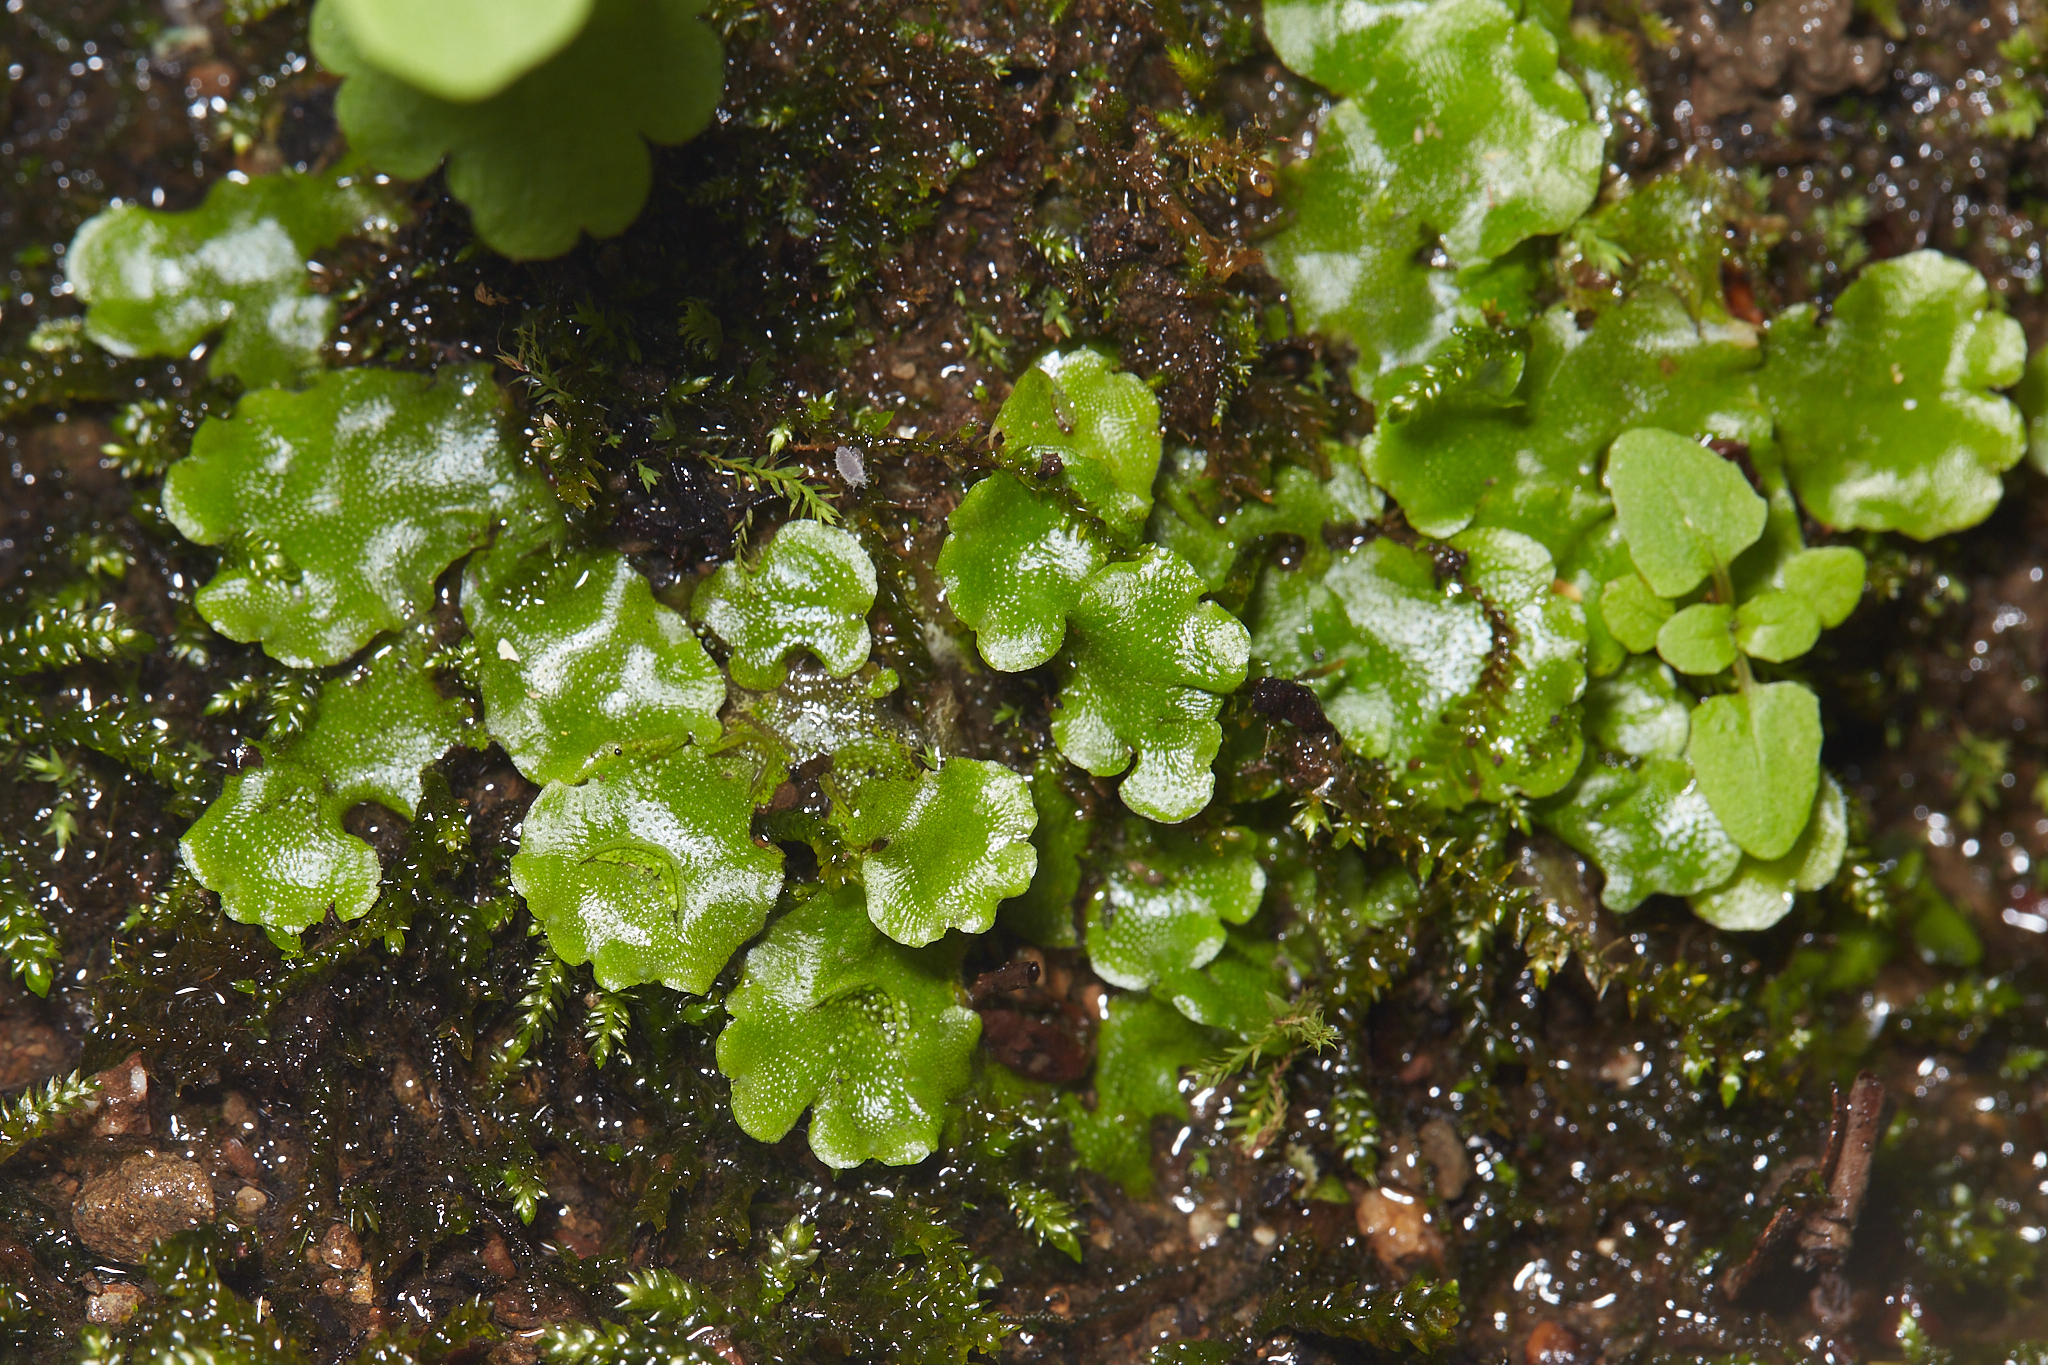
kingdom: Plantae
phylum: Marchantiophyta
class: Marchantiopsida
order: Lunulariales
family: Lunulariaceae
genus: Lunularia
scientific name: Lunularia cruciata
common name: Crescent-cup liverwort
